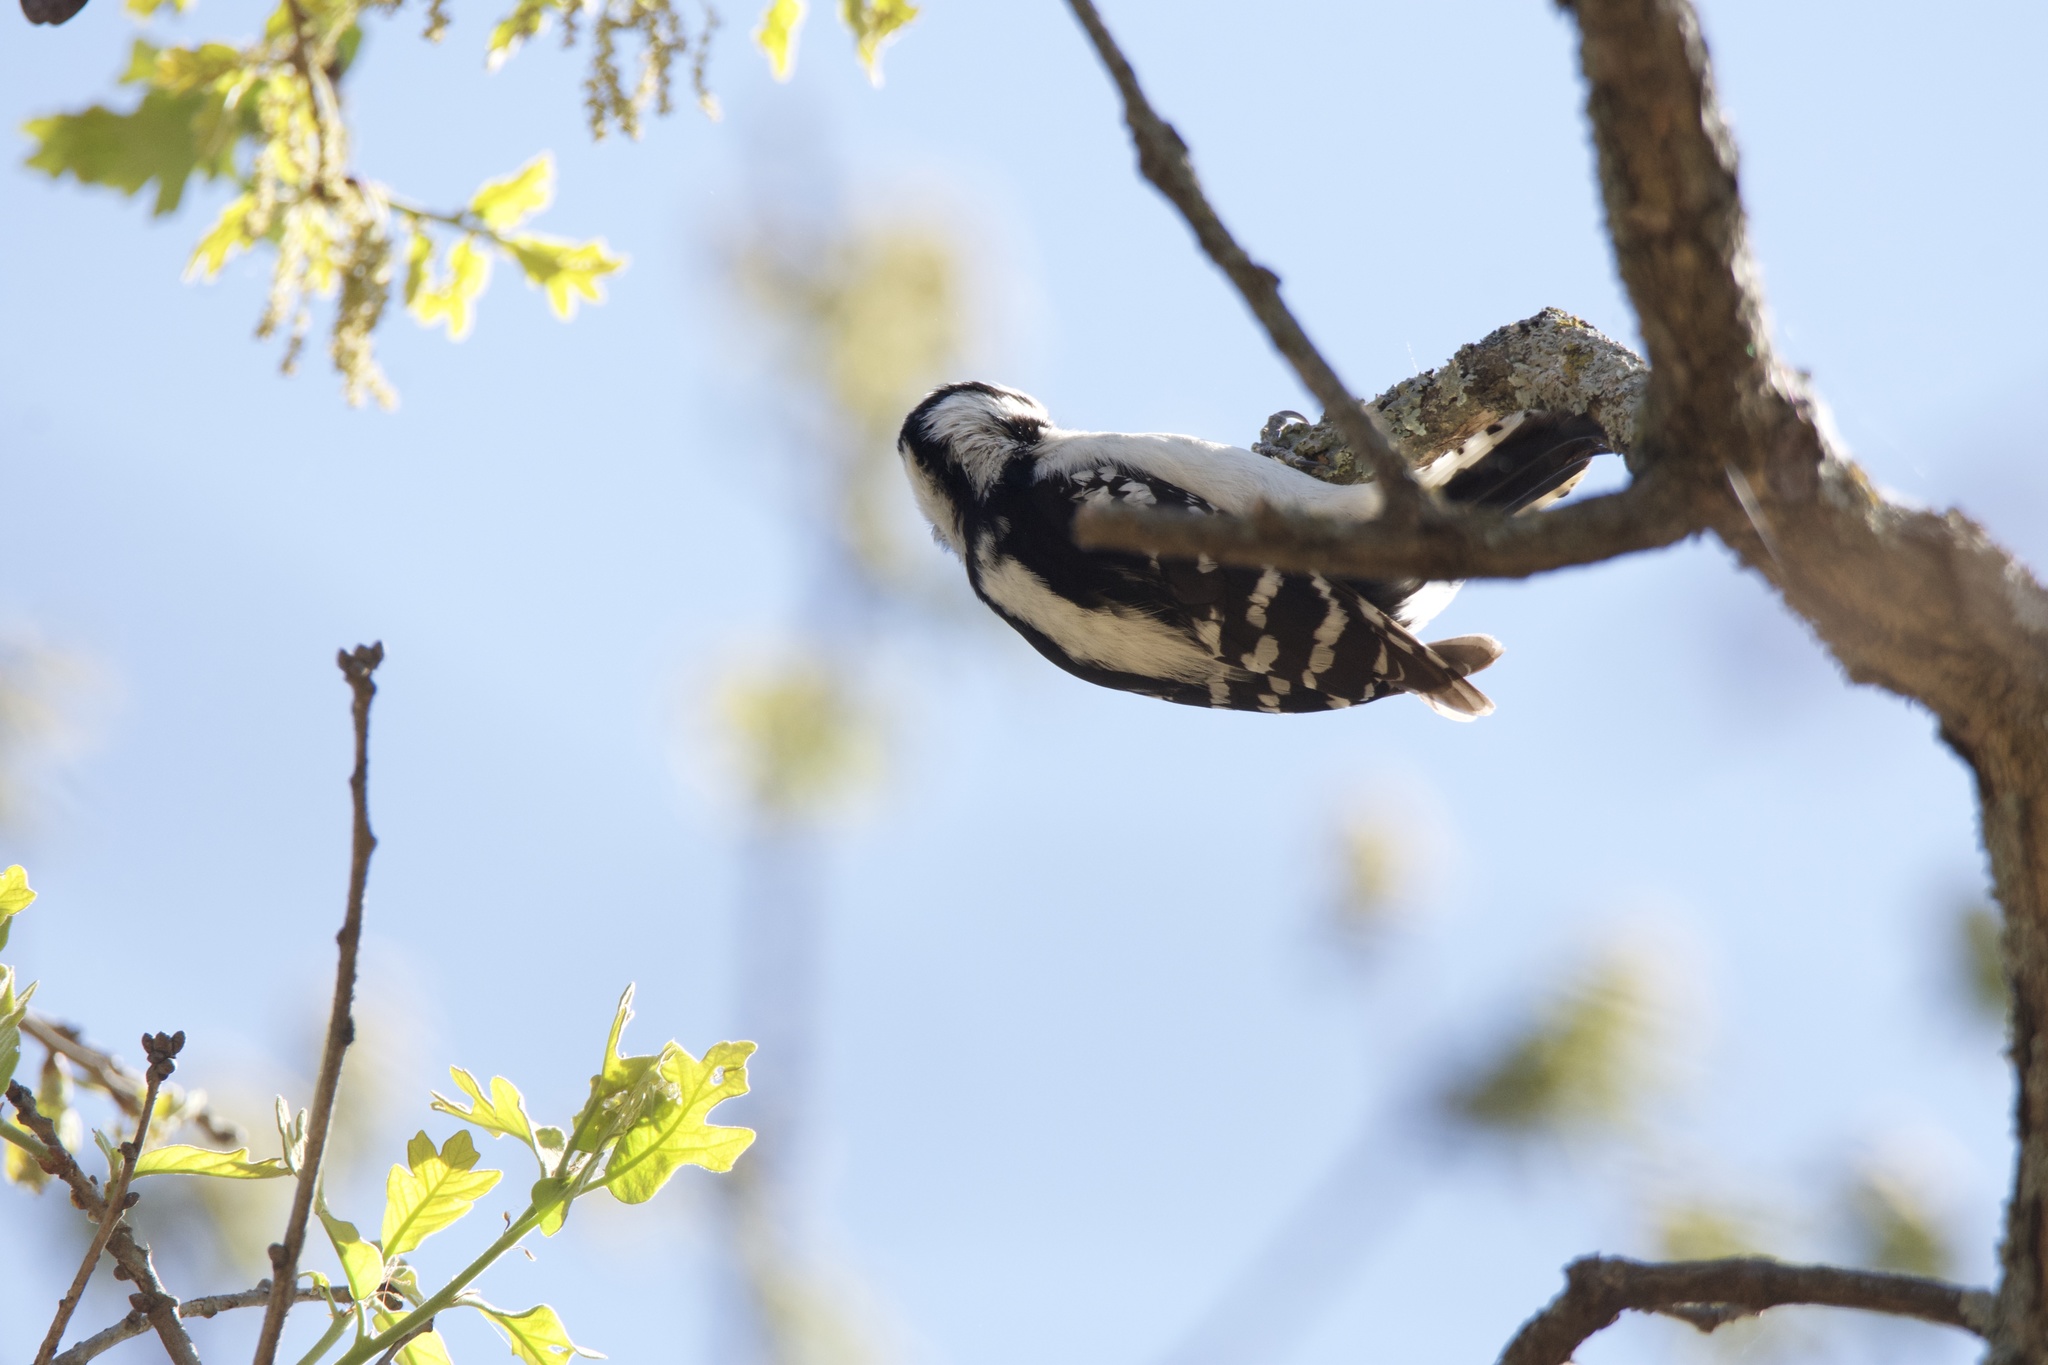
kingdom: Animalia
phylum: Chordata
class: Aves
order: Piciformes
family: Picidae
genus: Dryobates
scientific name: Dryobates pubescens
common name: Downy woodpecker
